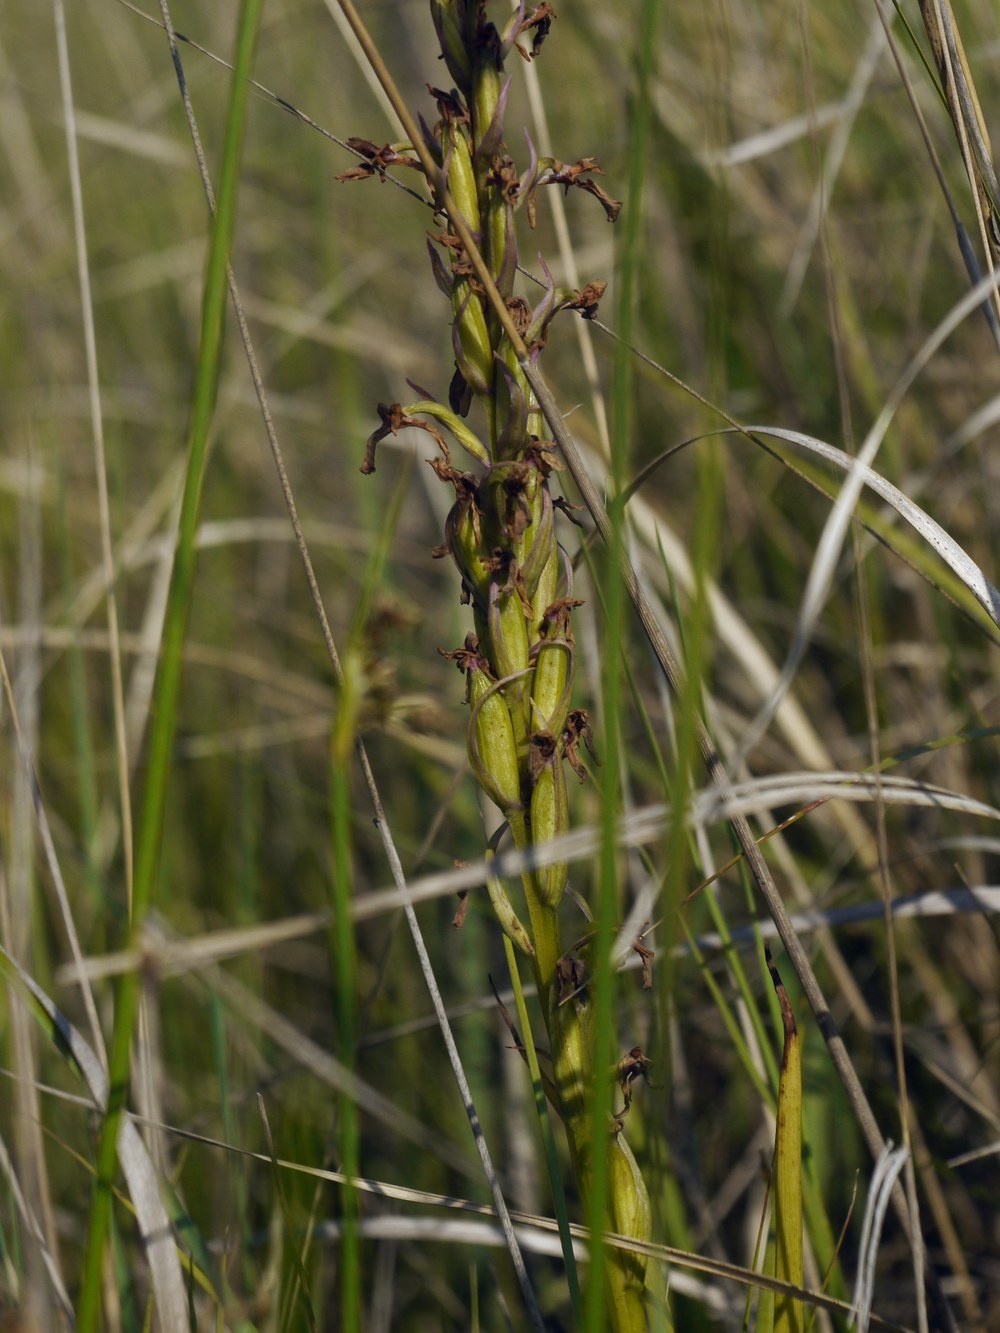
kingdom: Plantae
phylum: Tracheophyta
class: Liliopsida
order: Asparagales
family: Orchidaceae
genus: Anacamptis
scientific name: Anacamptis palustris
